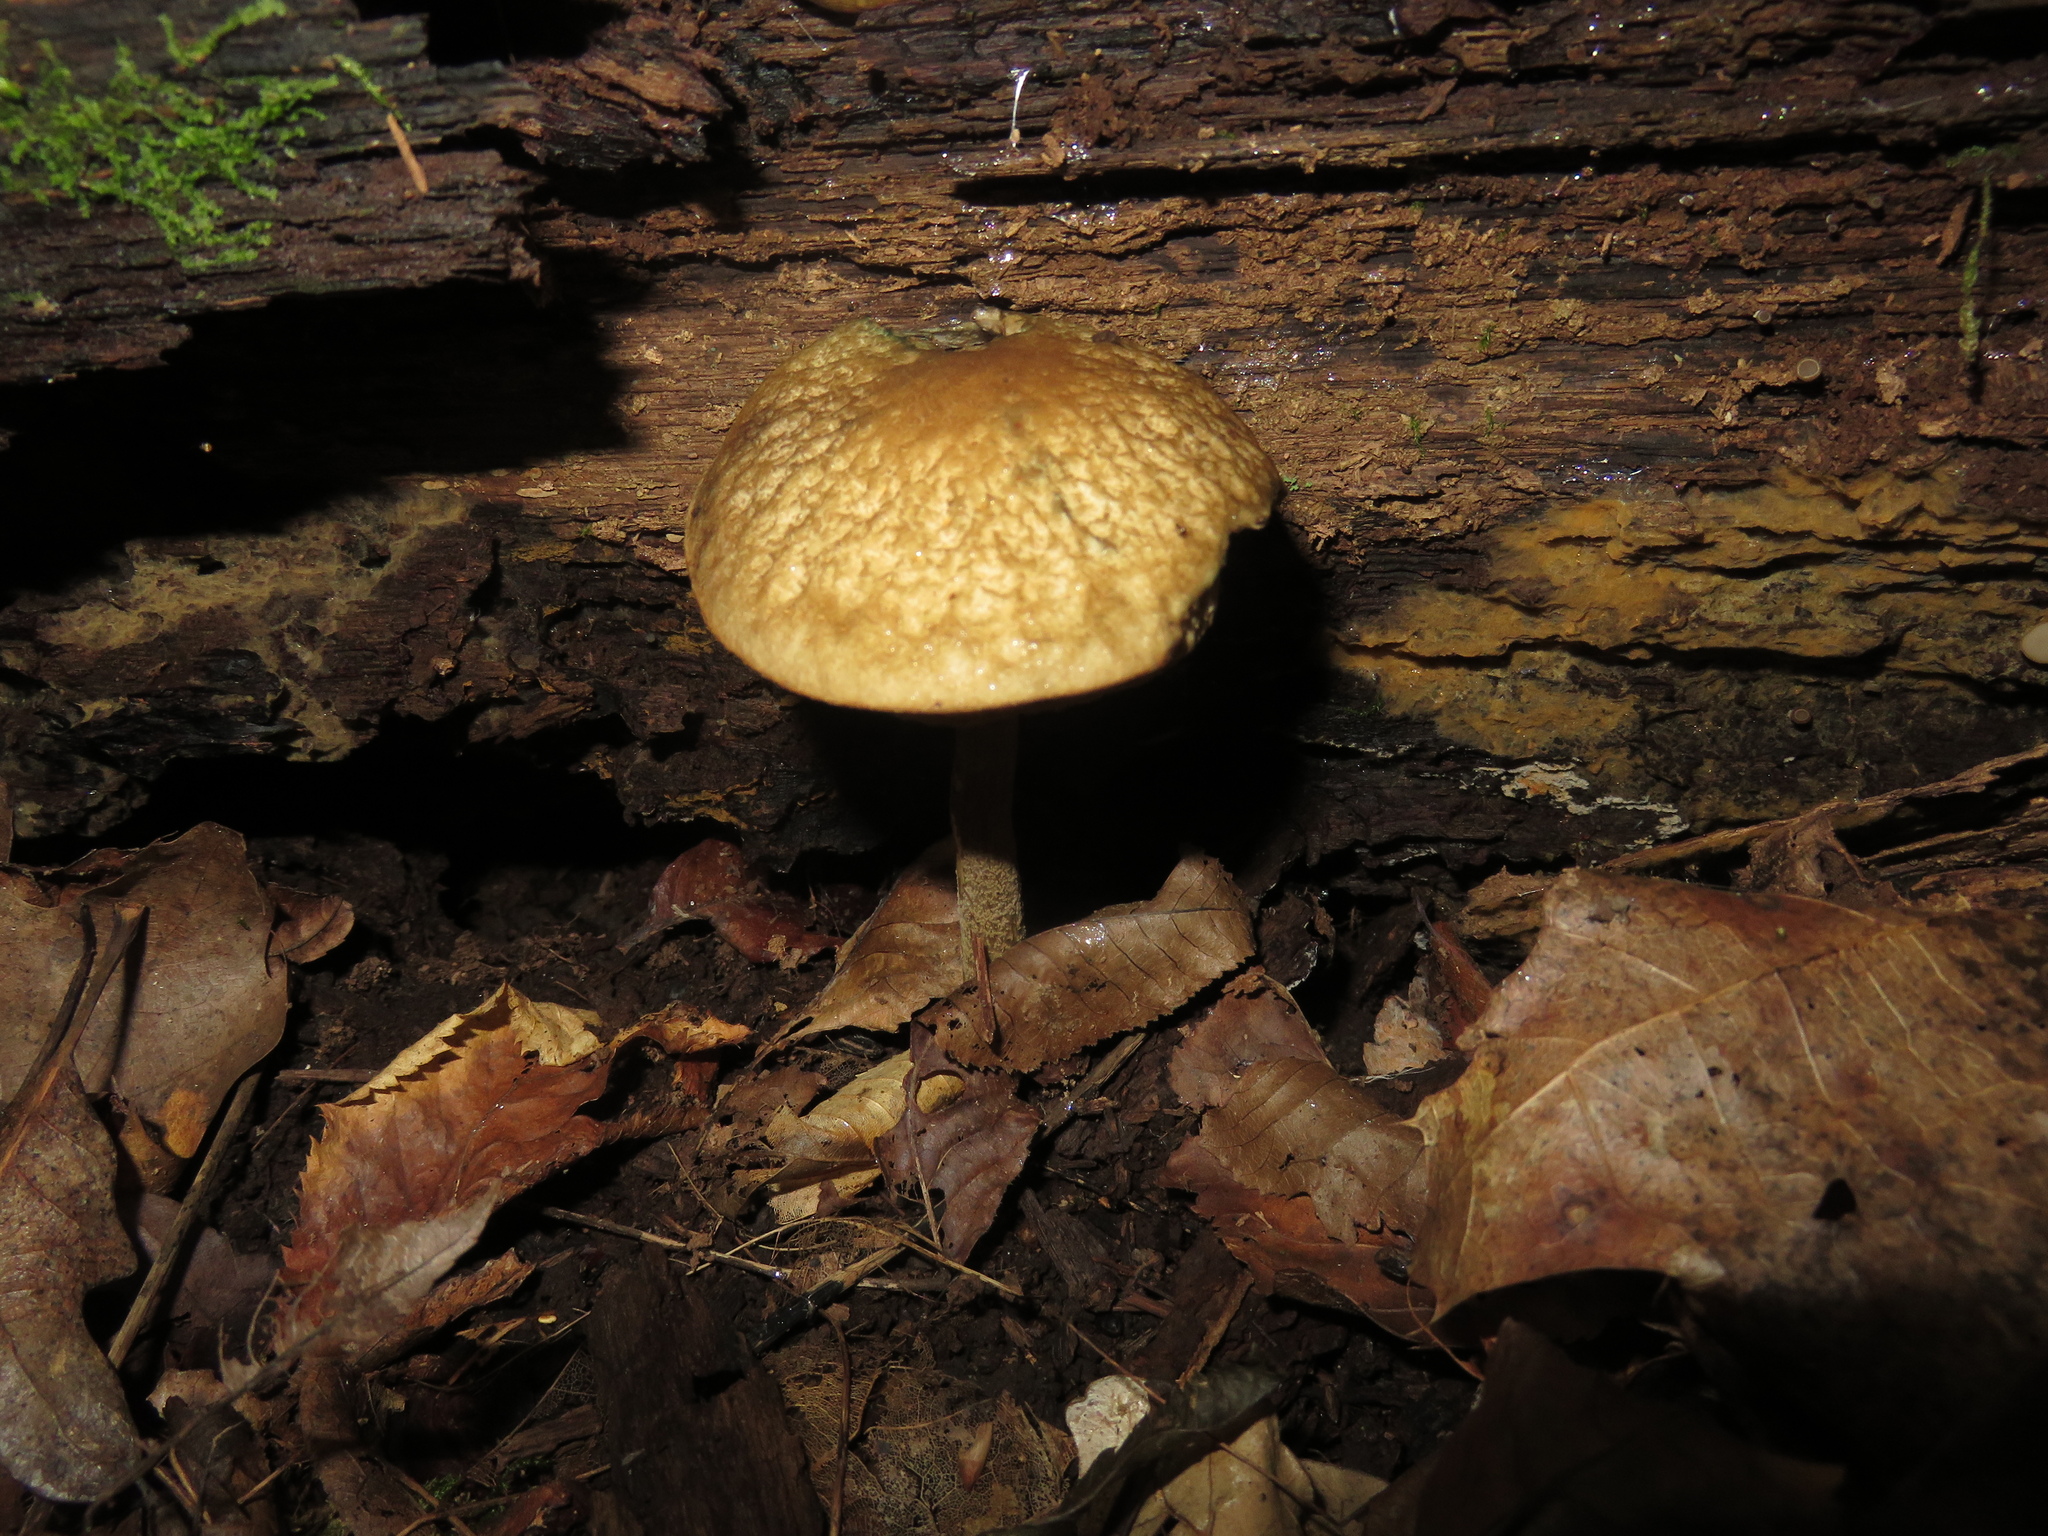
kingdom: Fungi
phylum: Basidiomycota
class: Agaricomycetes
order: Boletales
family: Boletaceae
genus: Leccinellum
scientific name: Leccinellum quercophilum
